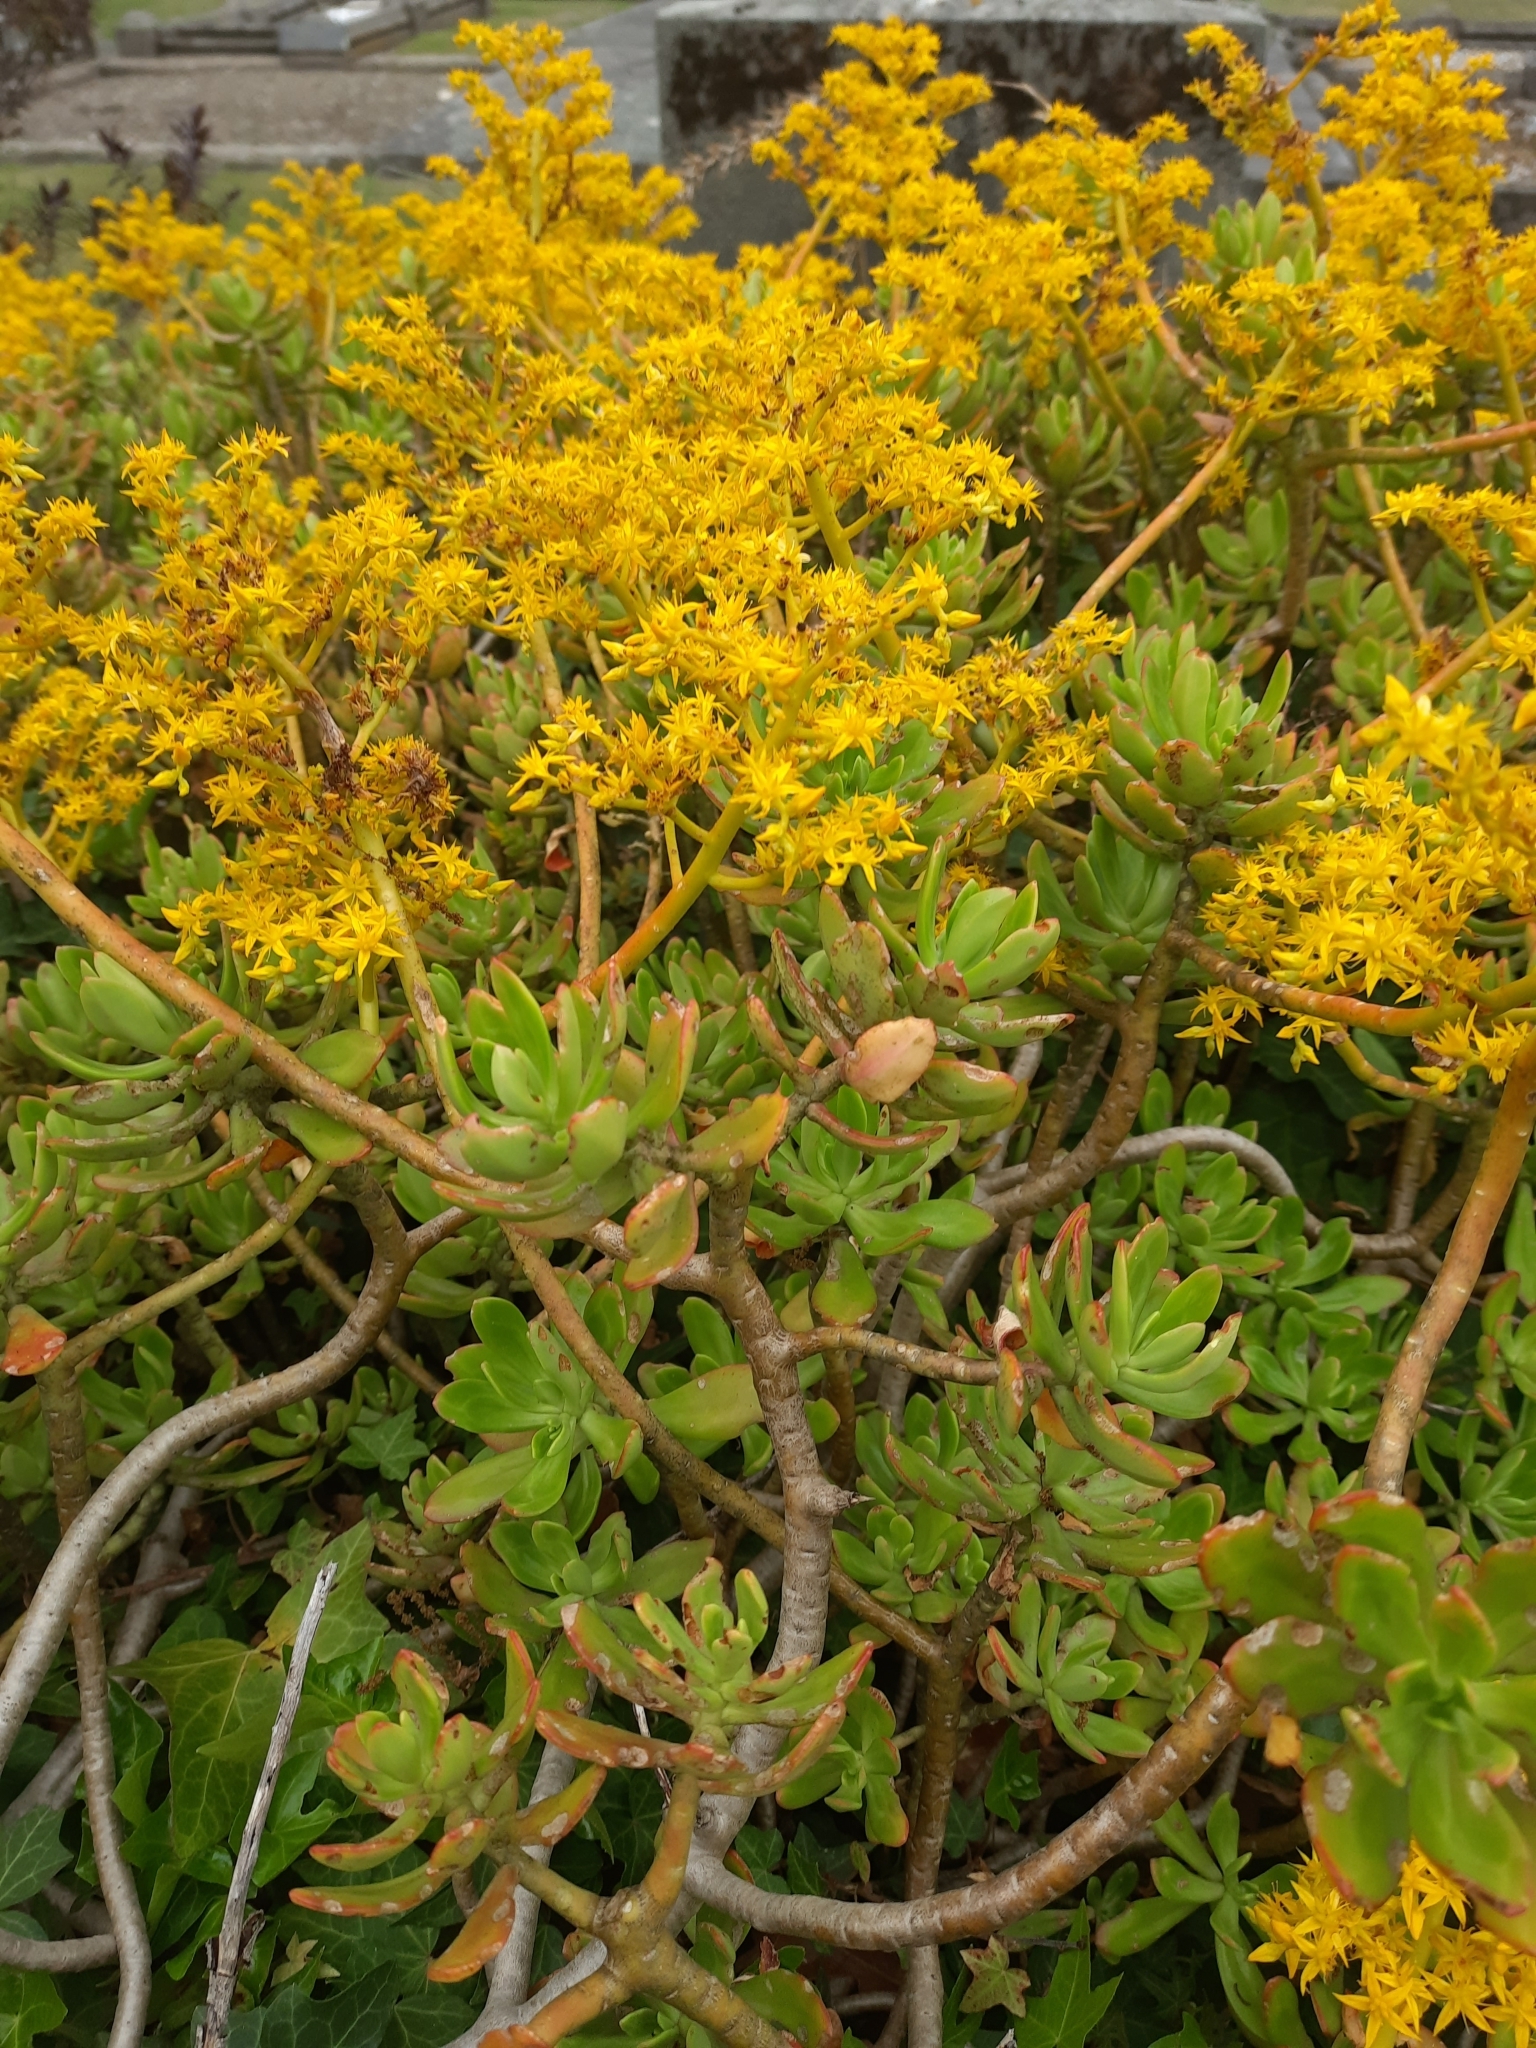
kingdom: Plantae
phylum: Tracheophyta
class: Magnoliopsida
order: Saxifragales
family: Crassulaceae
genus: Sedum
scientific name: Sedum praealtum
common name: Greater mexican-stonecrop
